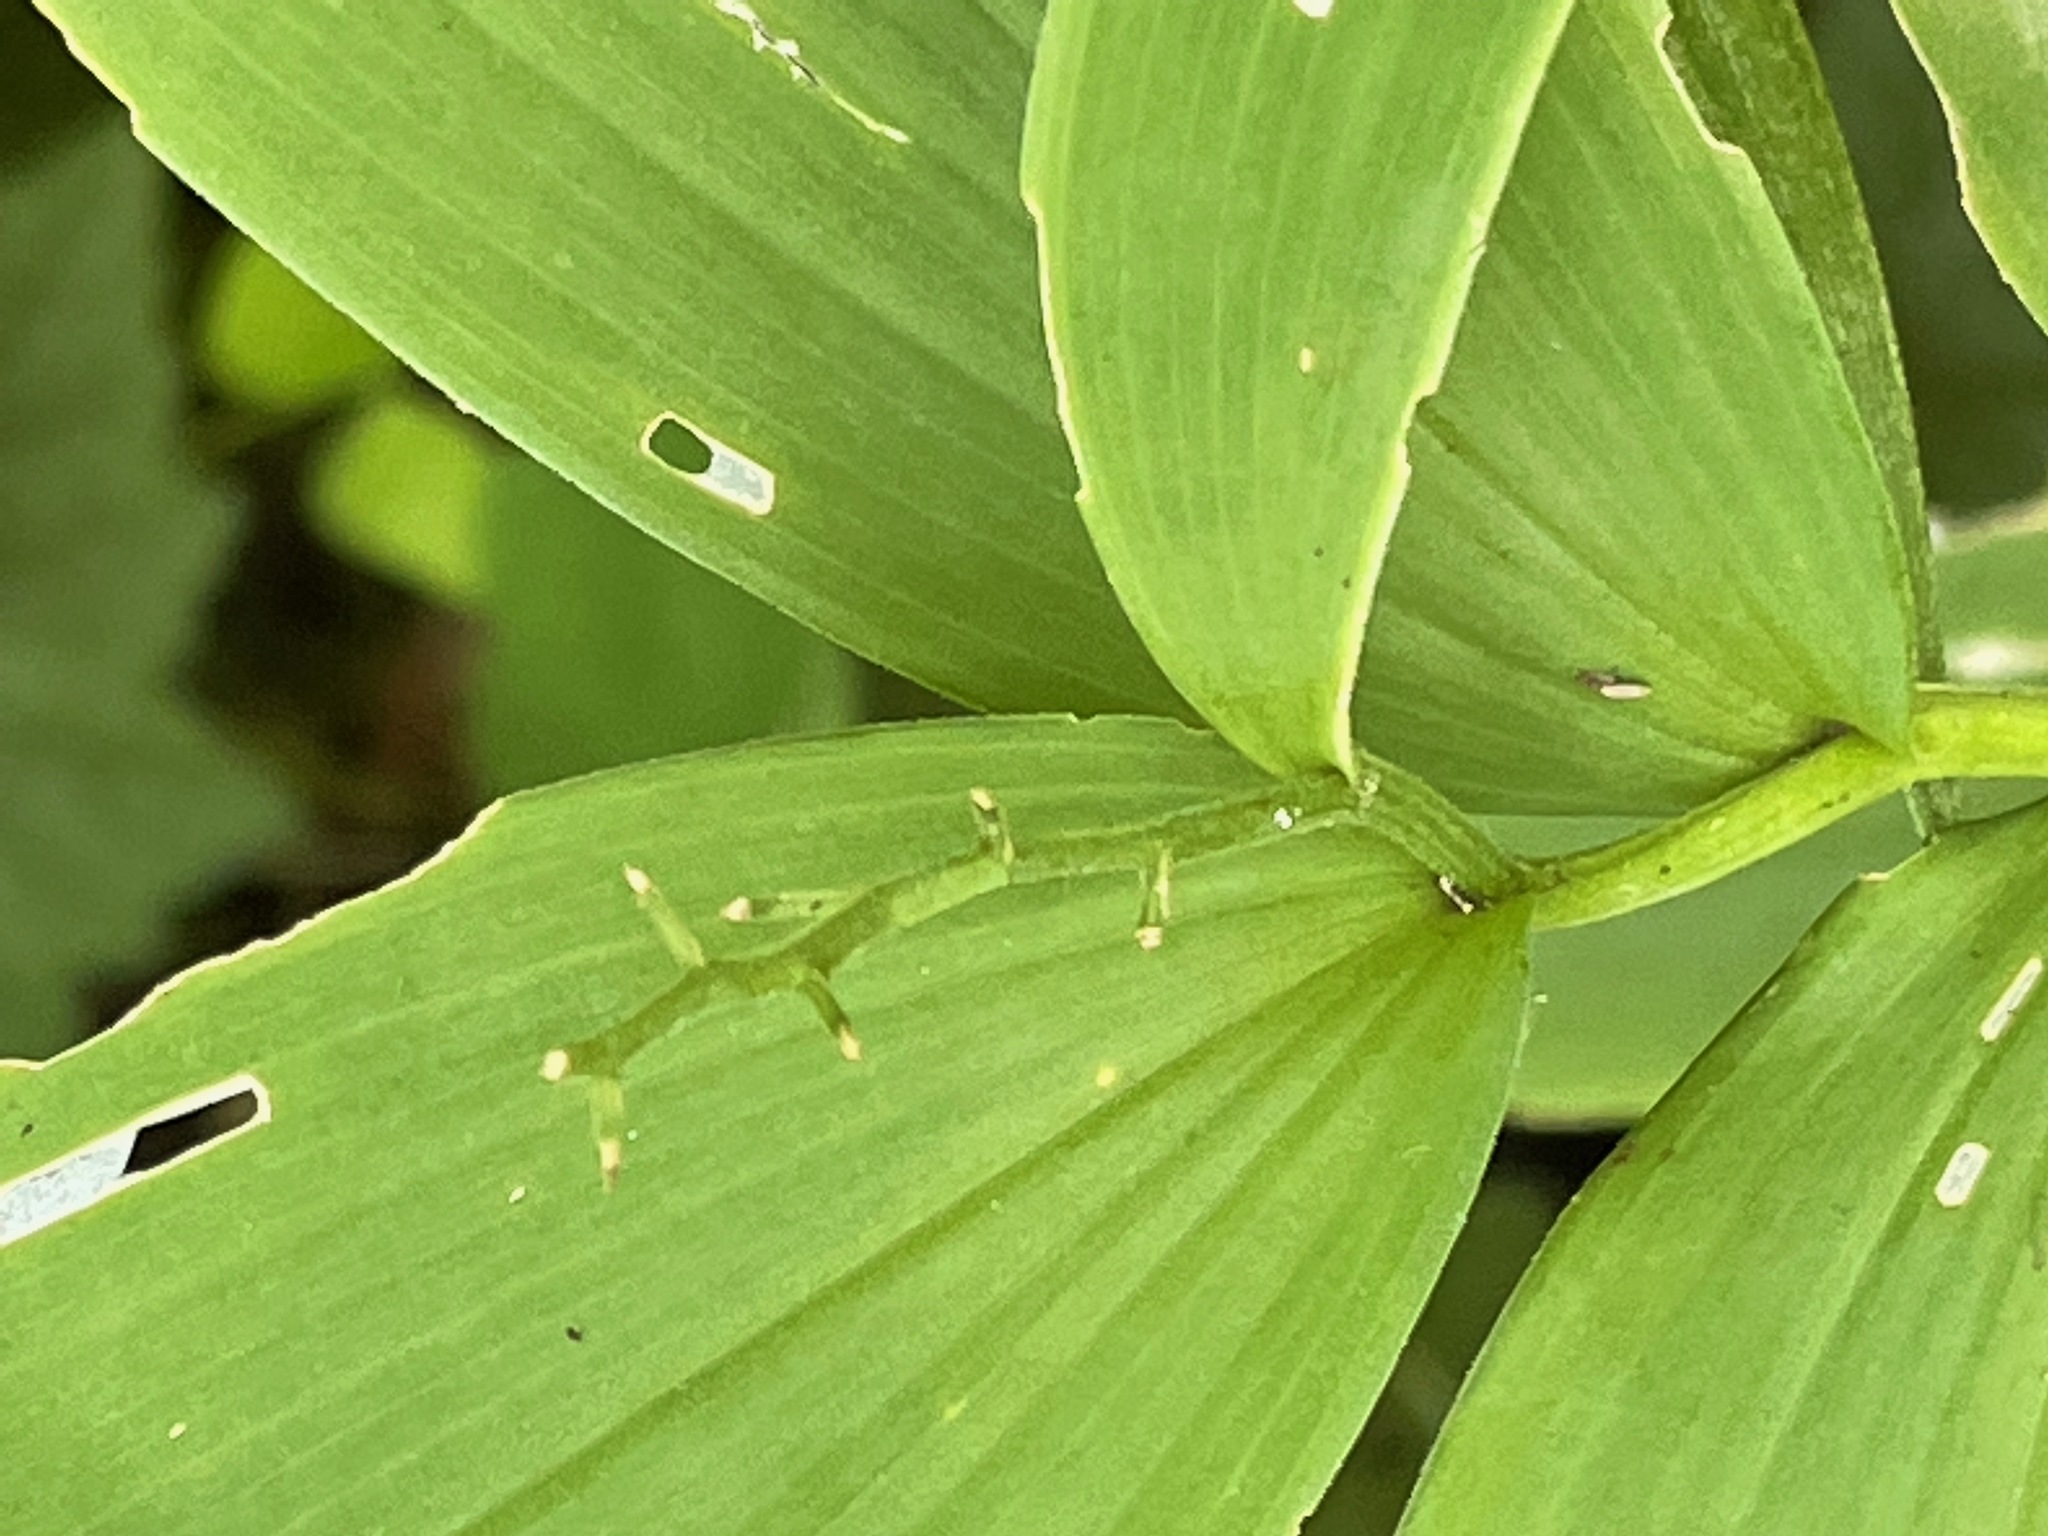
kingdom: Plantae
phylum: Tracheophyta
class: Liliopsida
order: Asparagales
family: Asparagaceae
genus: Maianthemum
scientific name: Maianthemum stellatum
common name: Little false solomon's seal
